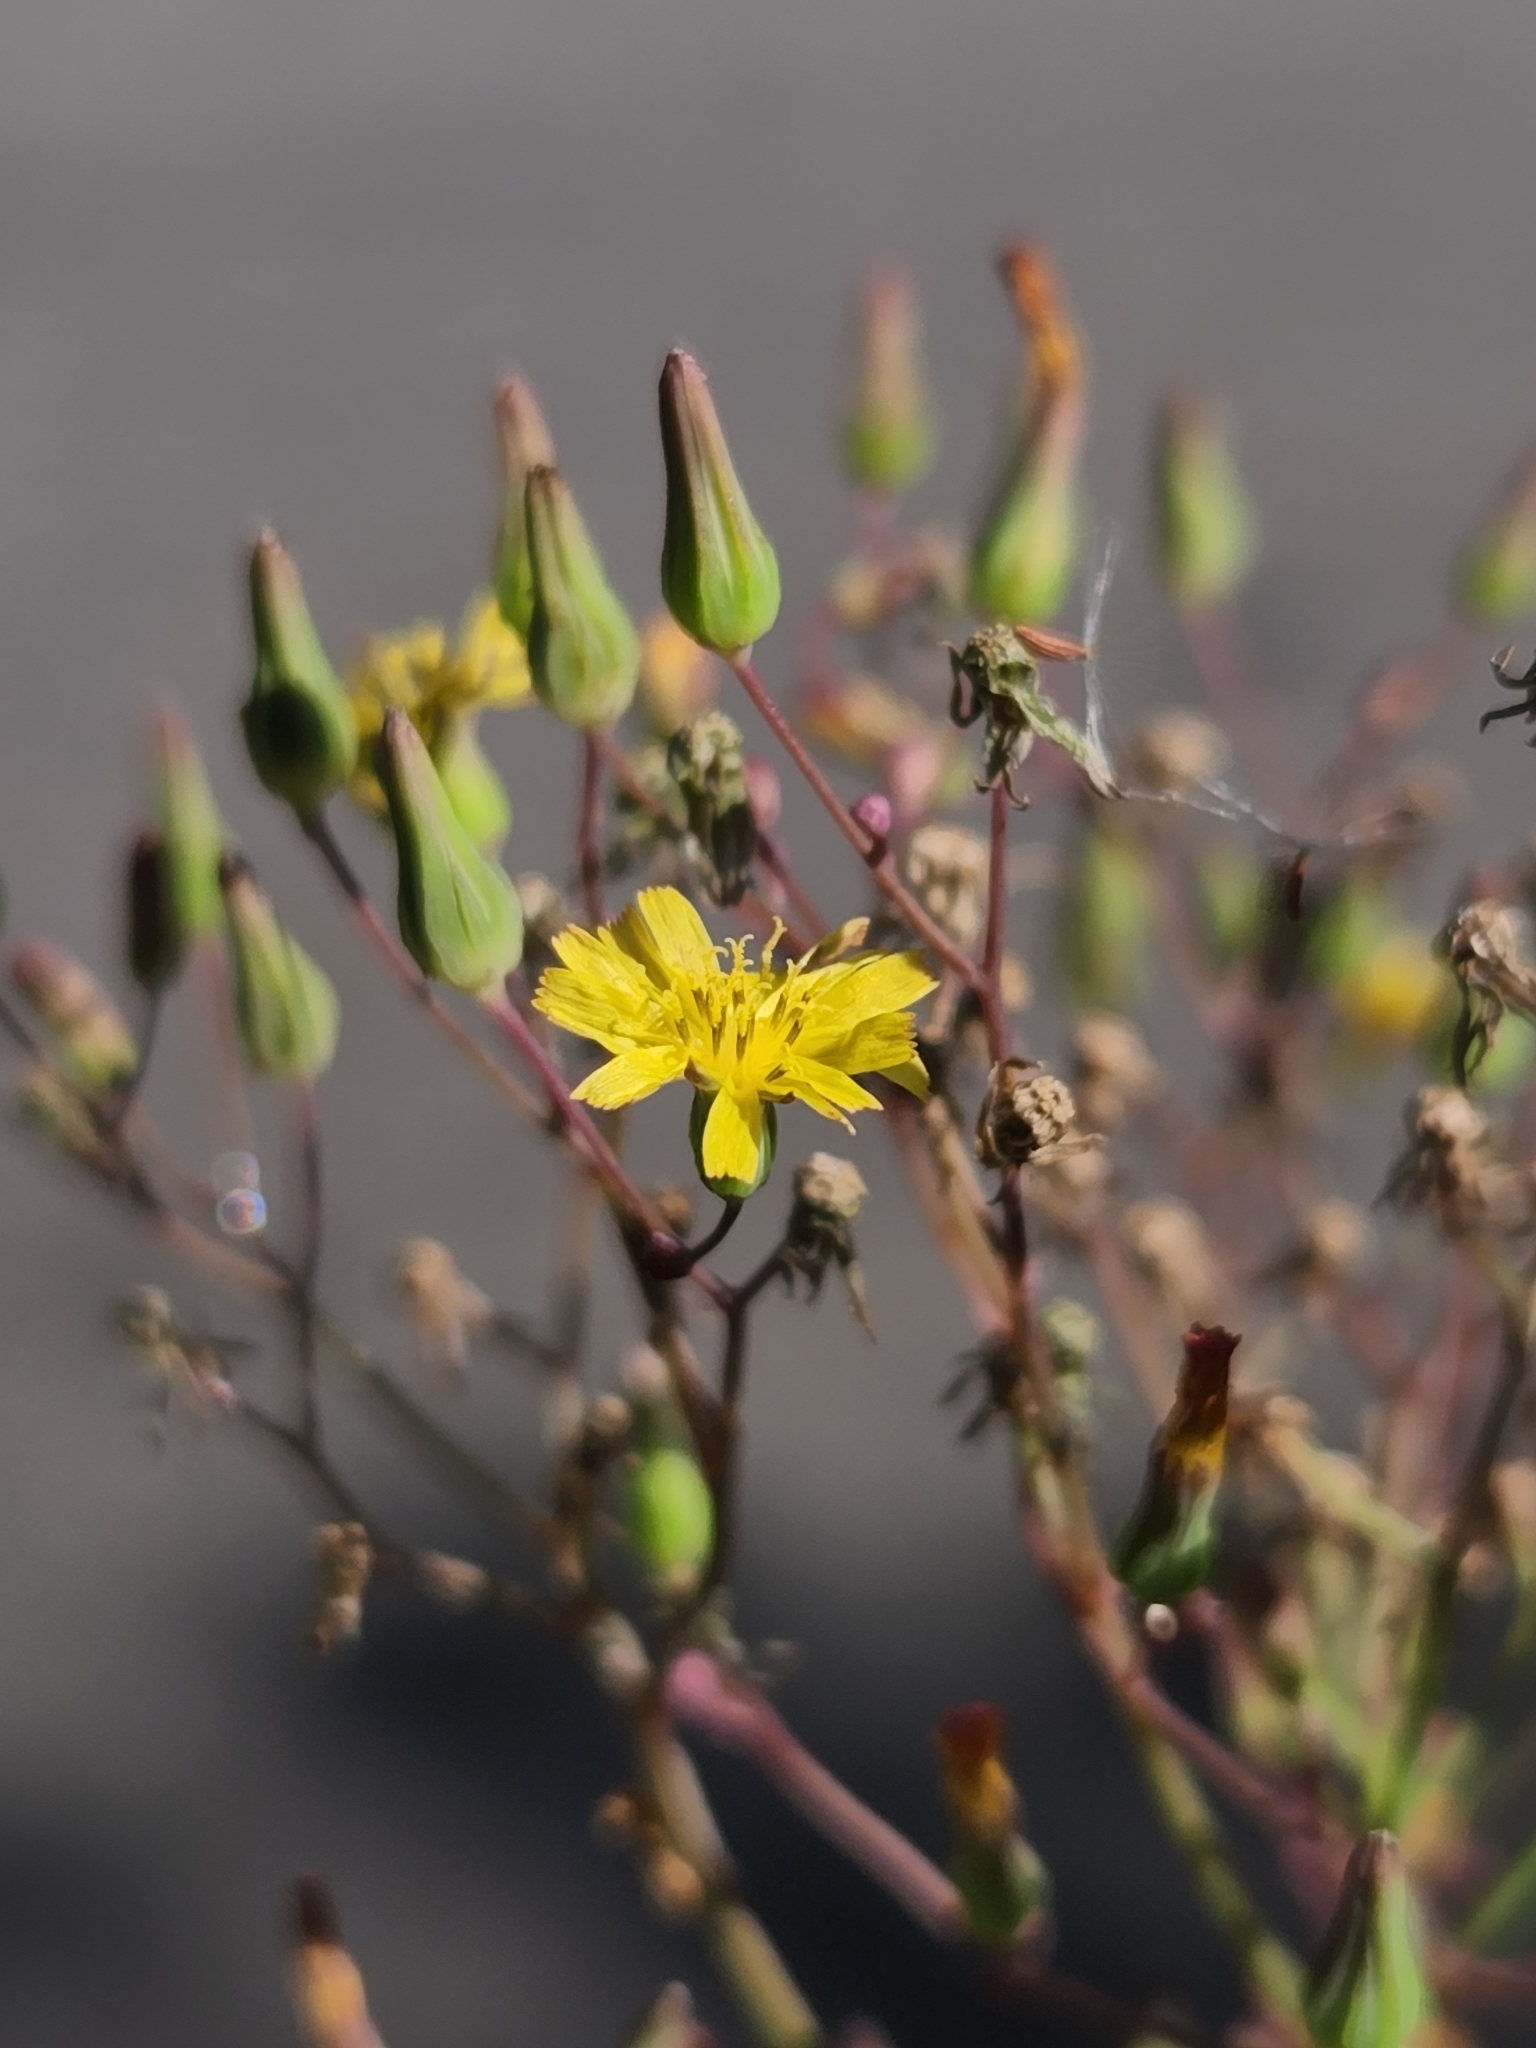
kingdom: Plantae
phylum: Tracheophyta
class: Magnoliopsida
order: Asterales
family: Asteraceae
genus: Youngia
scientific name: Youngia japonica
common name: Oriental false hawksbeard
